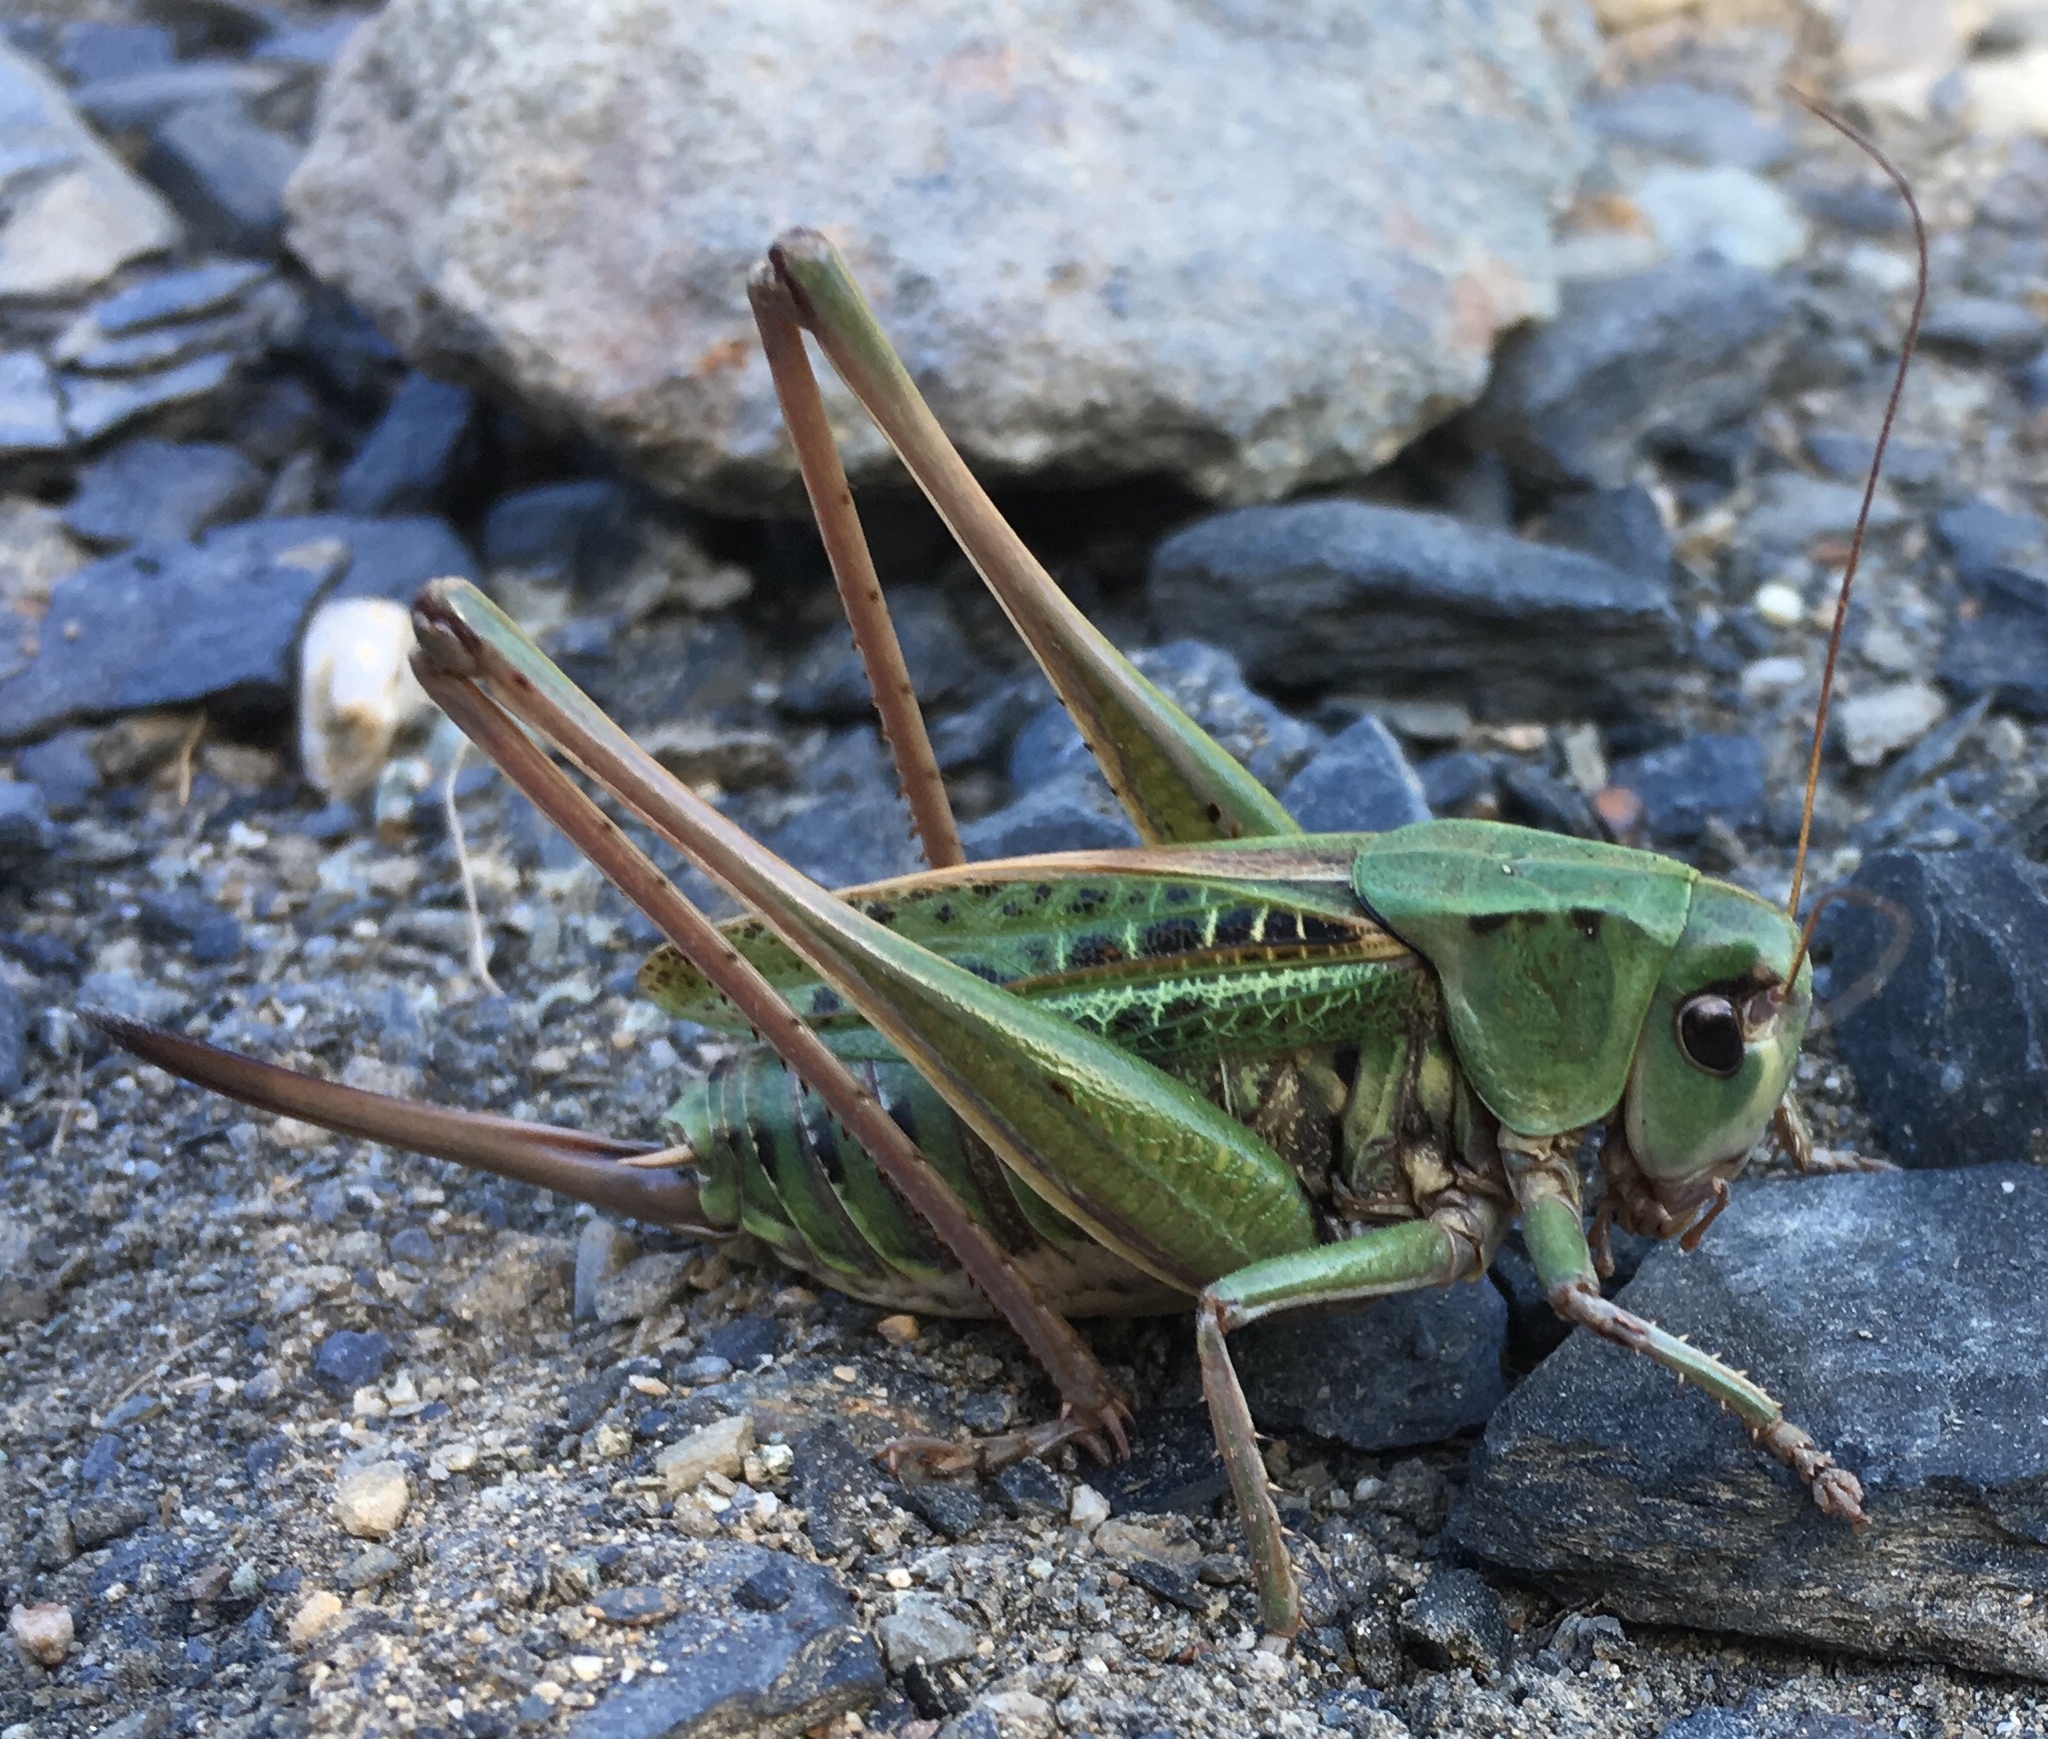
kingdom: Animalia
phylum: Arthropoda
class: Insecta
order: Orthoptera
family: Tettigoniidae
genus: Decticus
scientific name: Decticus verrucivorus
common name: Wart-biter
